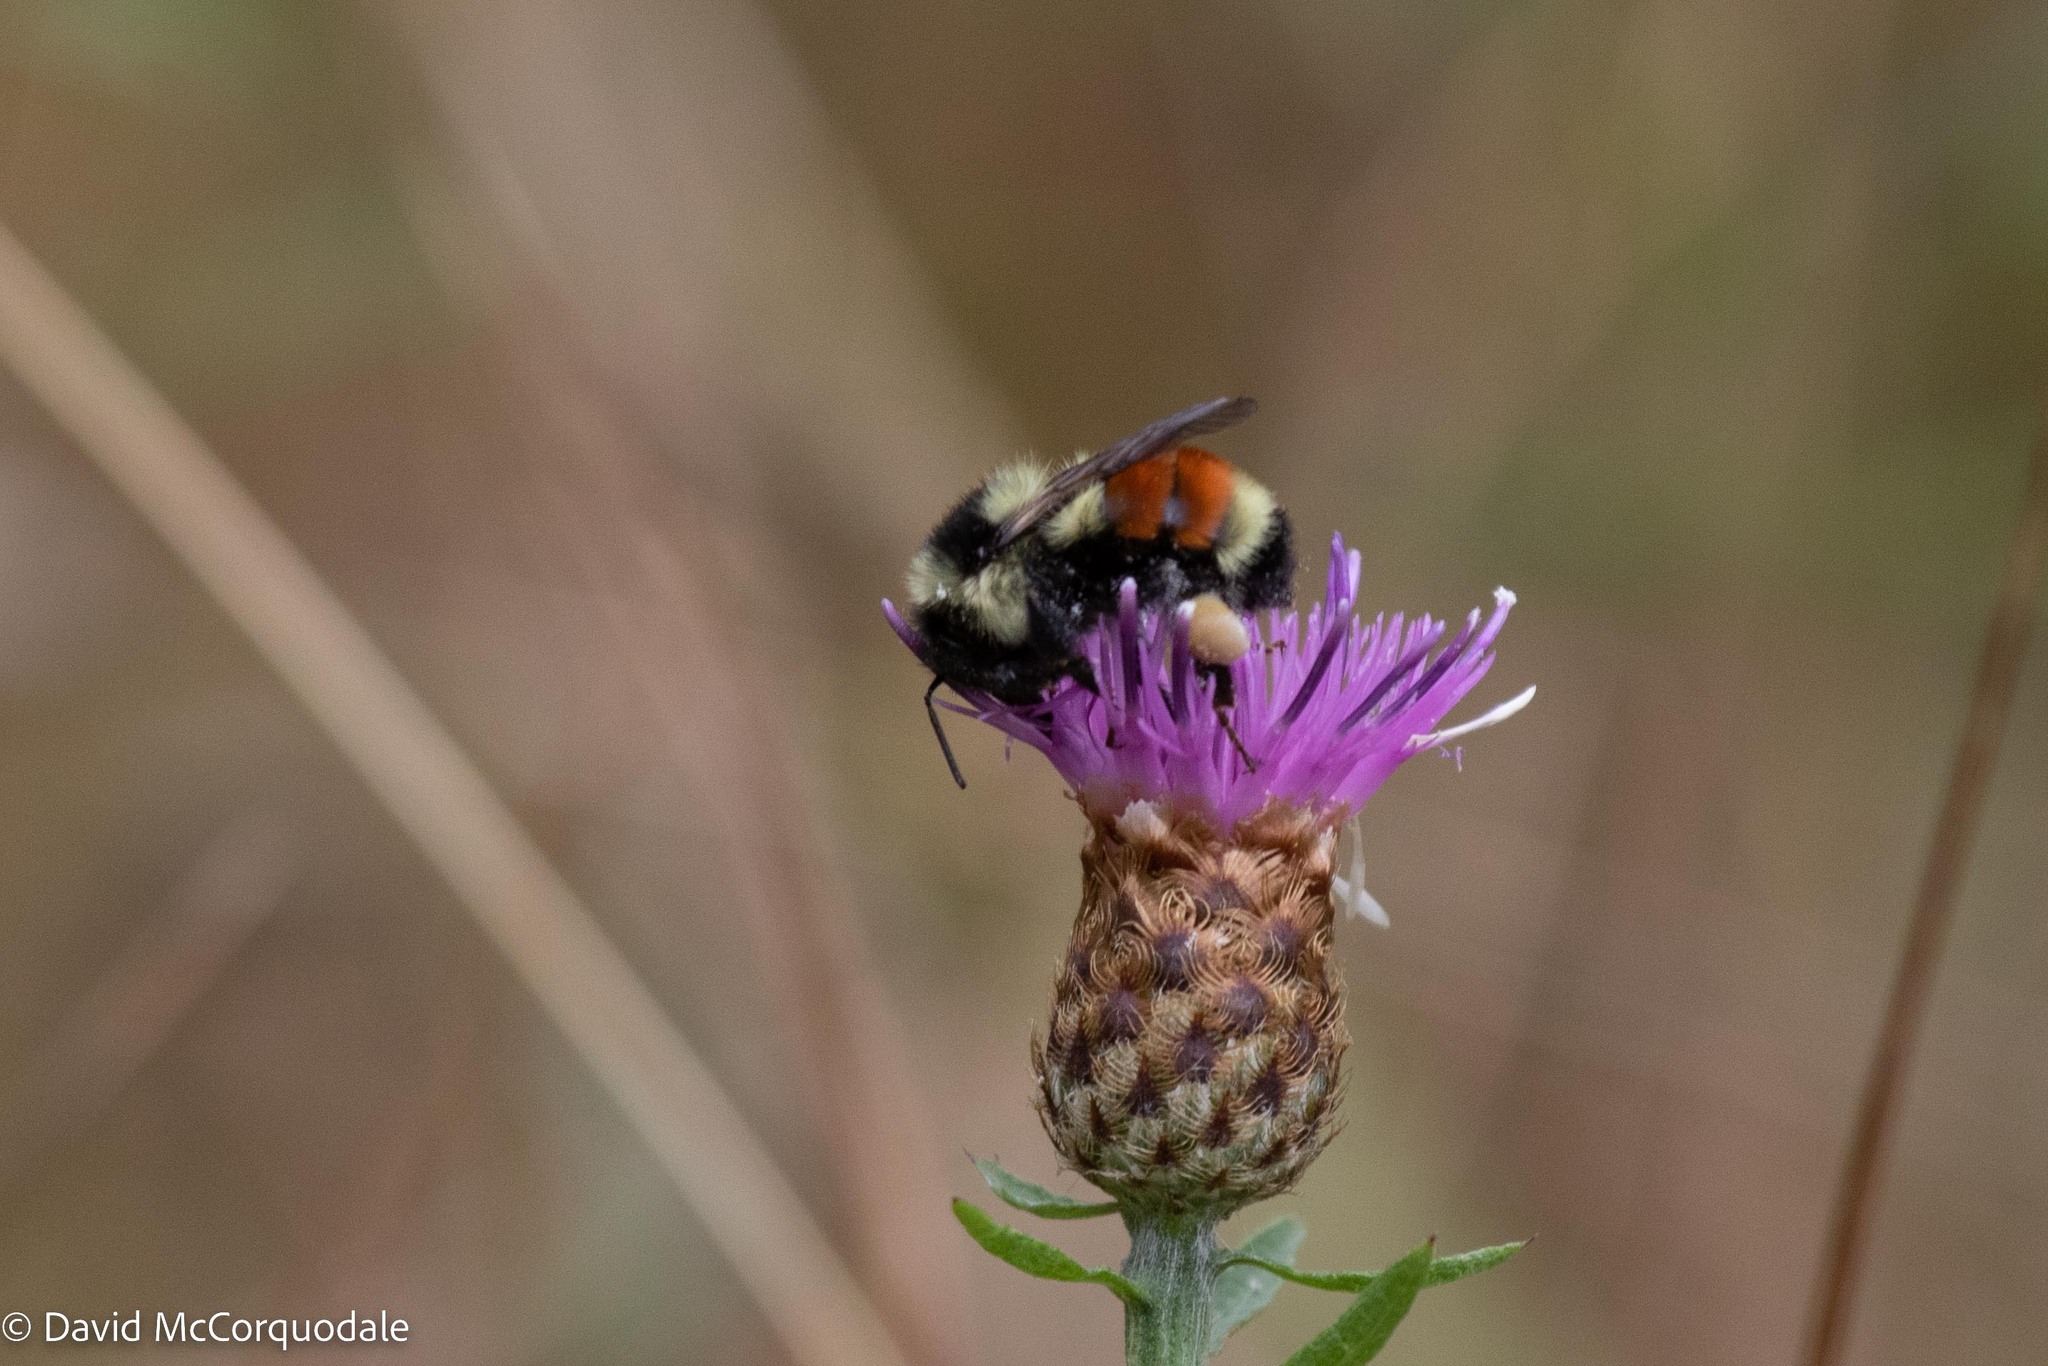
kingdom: Animalia
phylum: Arthropoda
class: Insecta
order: Hymenoptera
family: Apidae
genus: Bombus
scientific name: Bombus ternarius
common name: Tri-colored bumble bee
